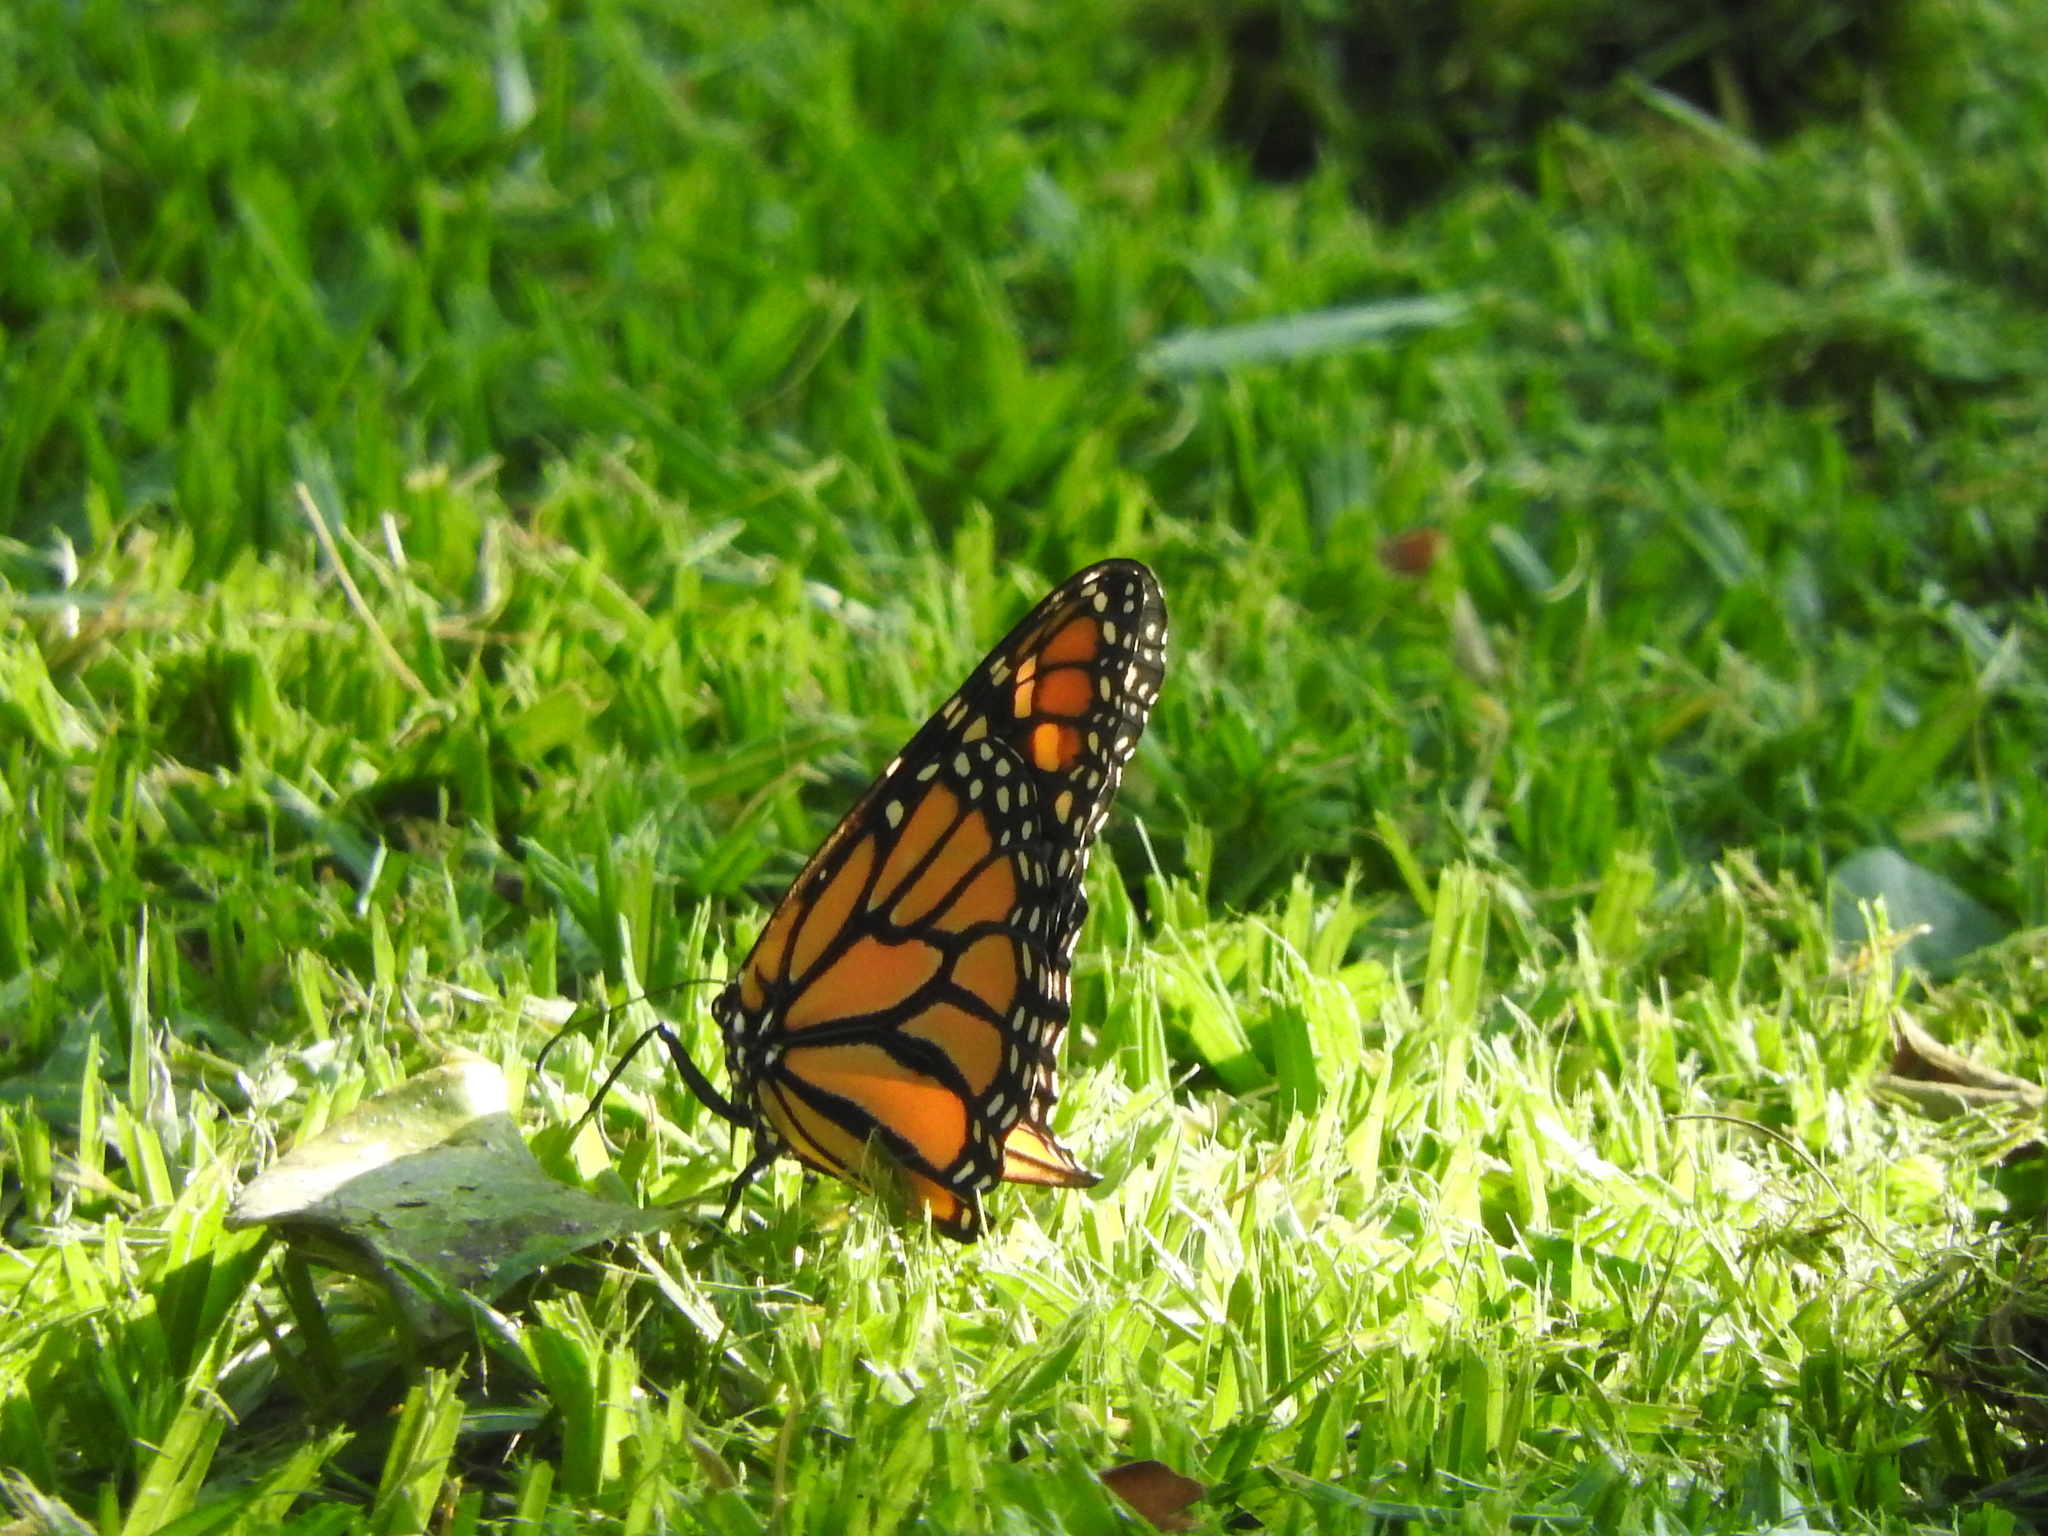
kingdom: Animalia
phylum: Arthropoda
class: Insecta
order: Lepidoptera
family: Nymphalidae
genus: Danaus
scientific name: Danaus plexippus
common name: Monarch
